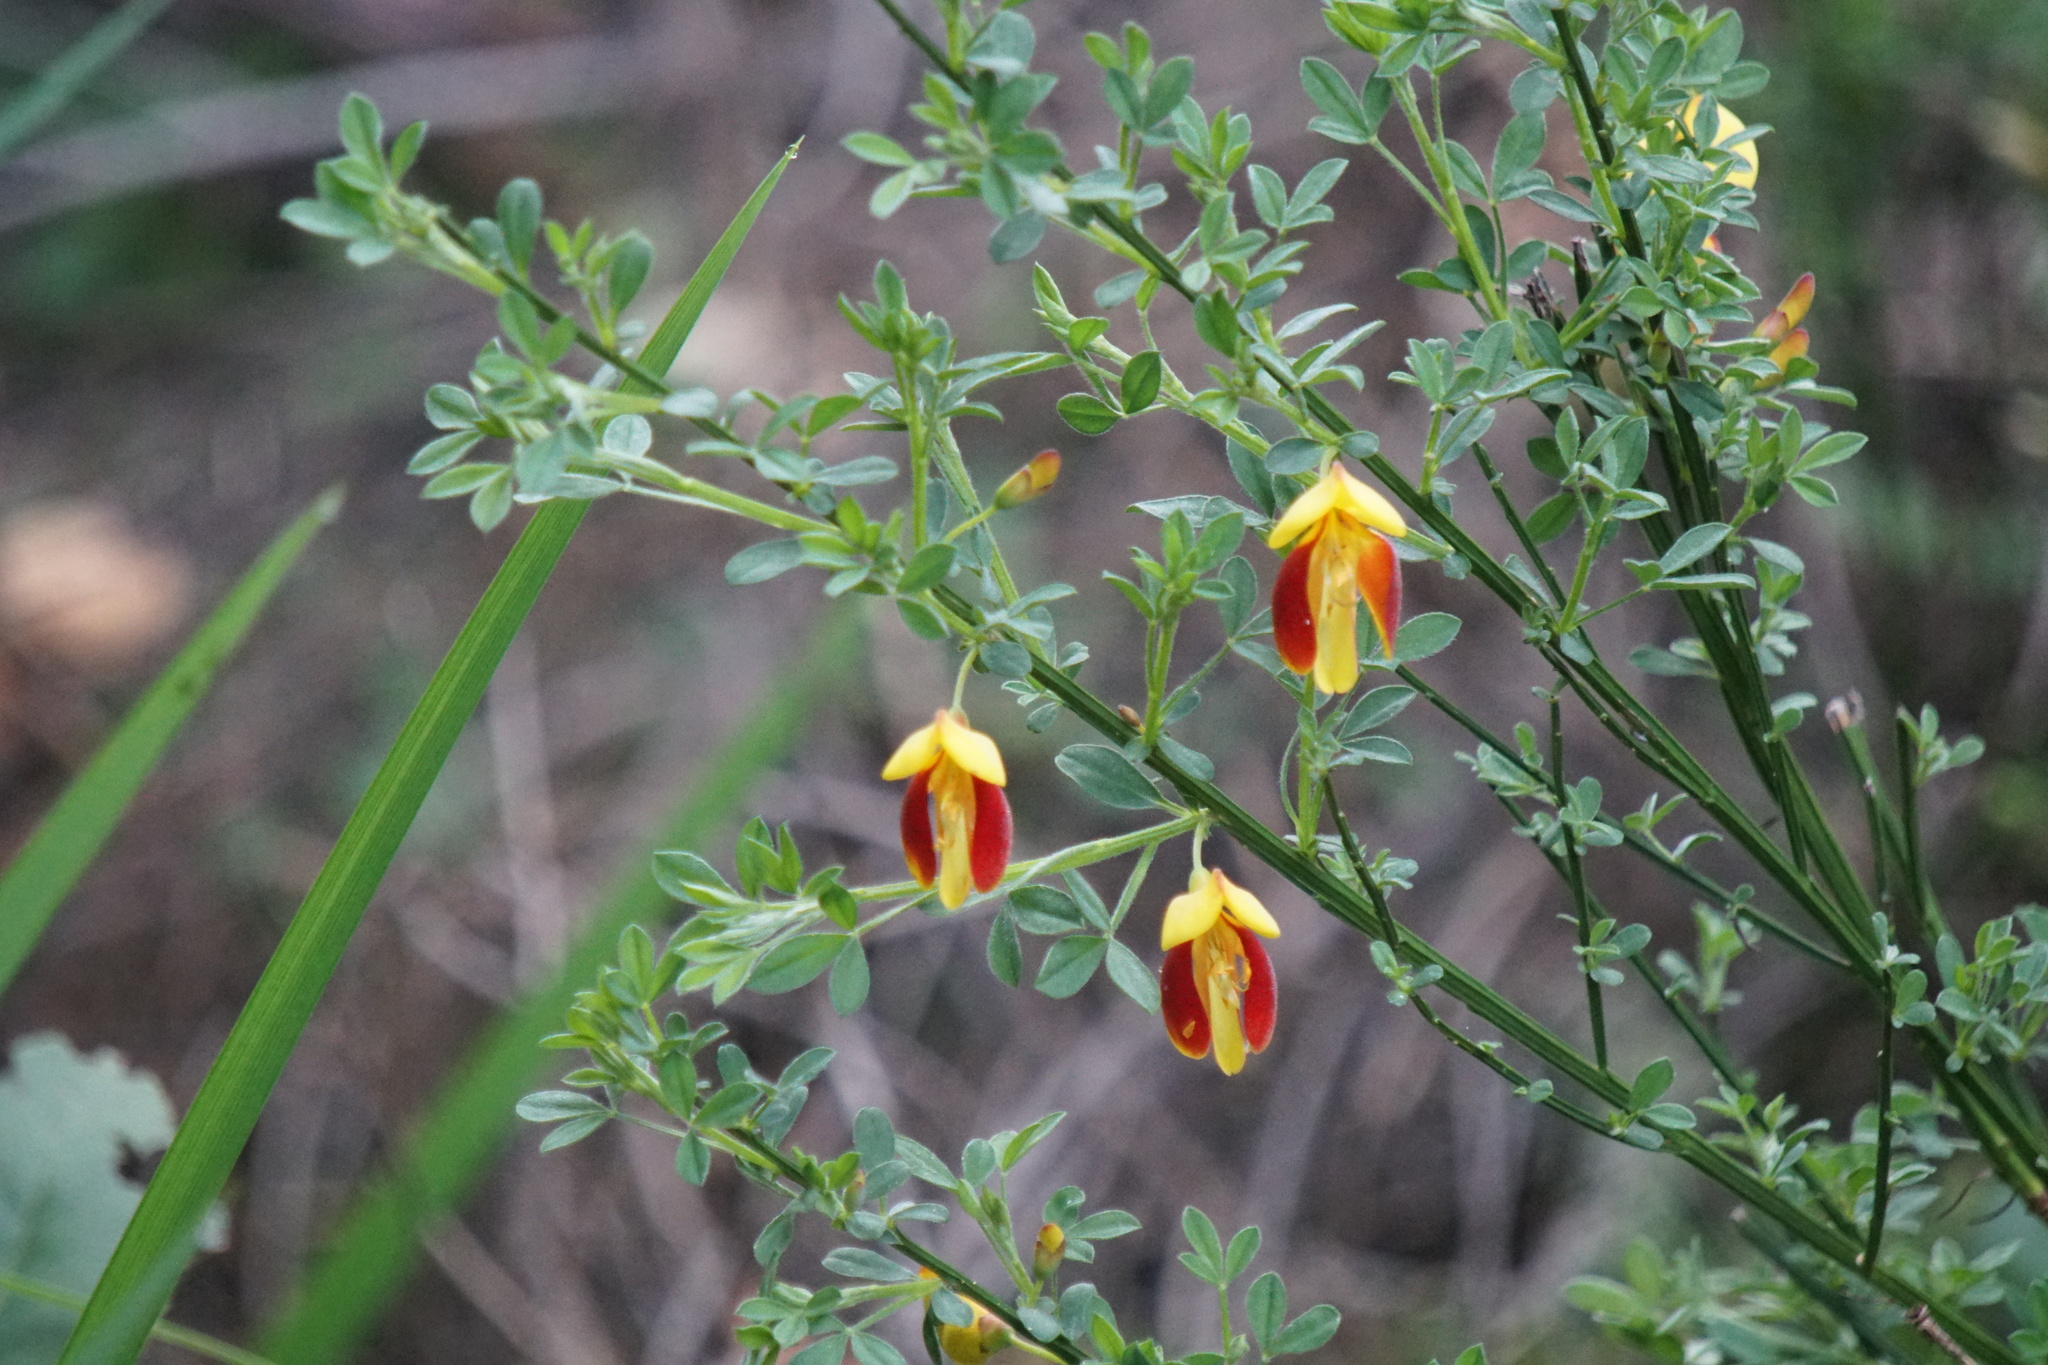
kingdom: Plantae
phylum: Tracheophyta
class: Magnoliopsida
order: Fabales
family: Fabaceae
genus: Cytisus
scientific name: Cytisus scoparius
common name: Scotch broom
